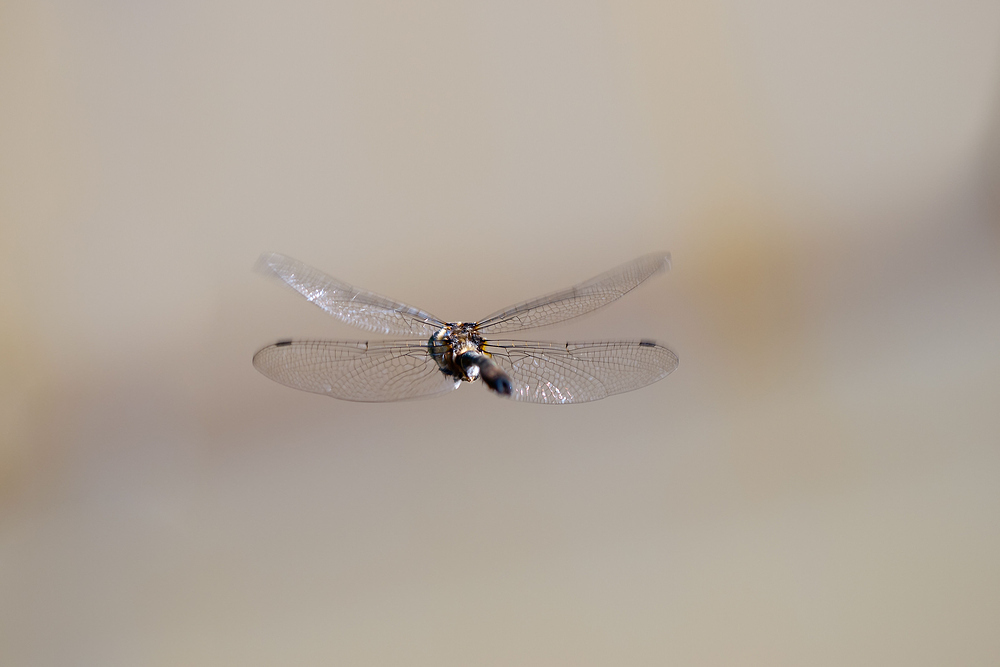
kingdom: Animalia
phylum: Arthropoda
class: Insecta
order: Odonata
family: Corduliidae
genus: Cordulia
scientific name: Cordulia aenea
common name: Downy emerald
